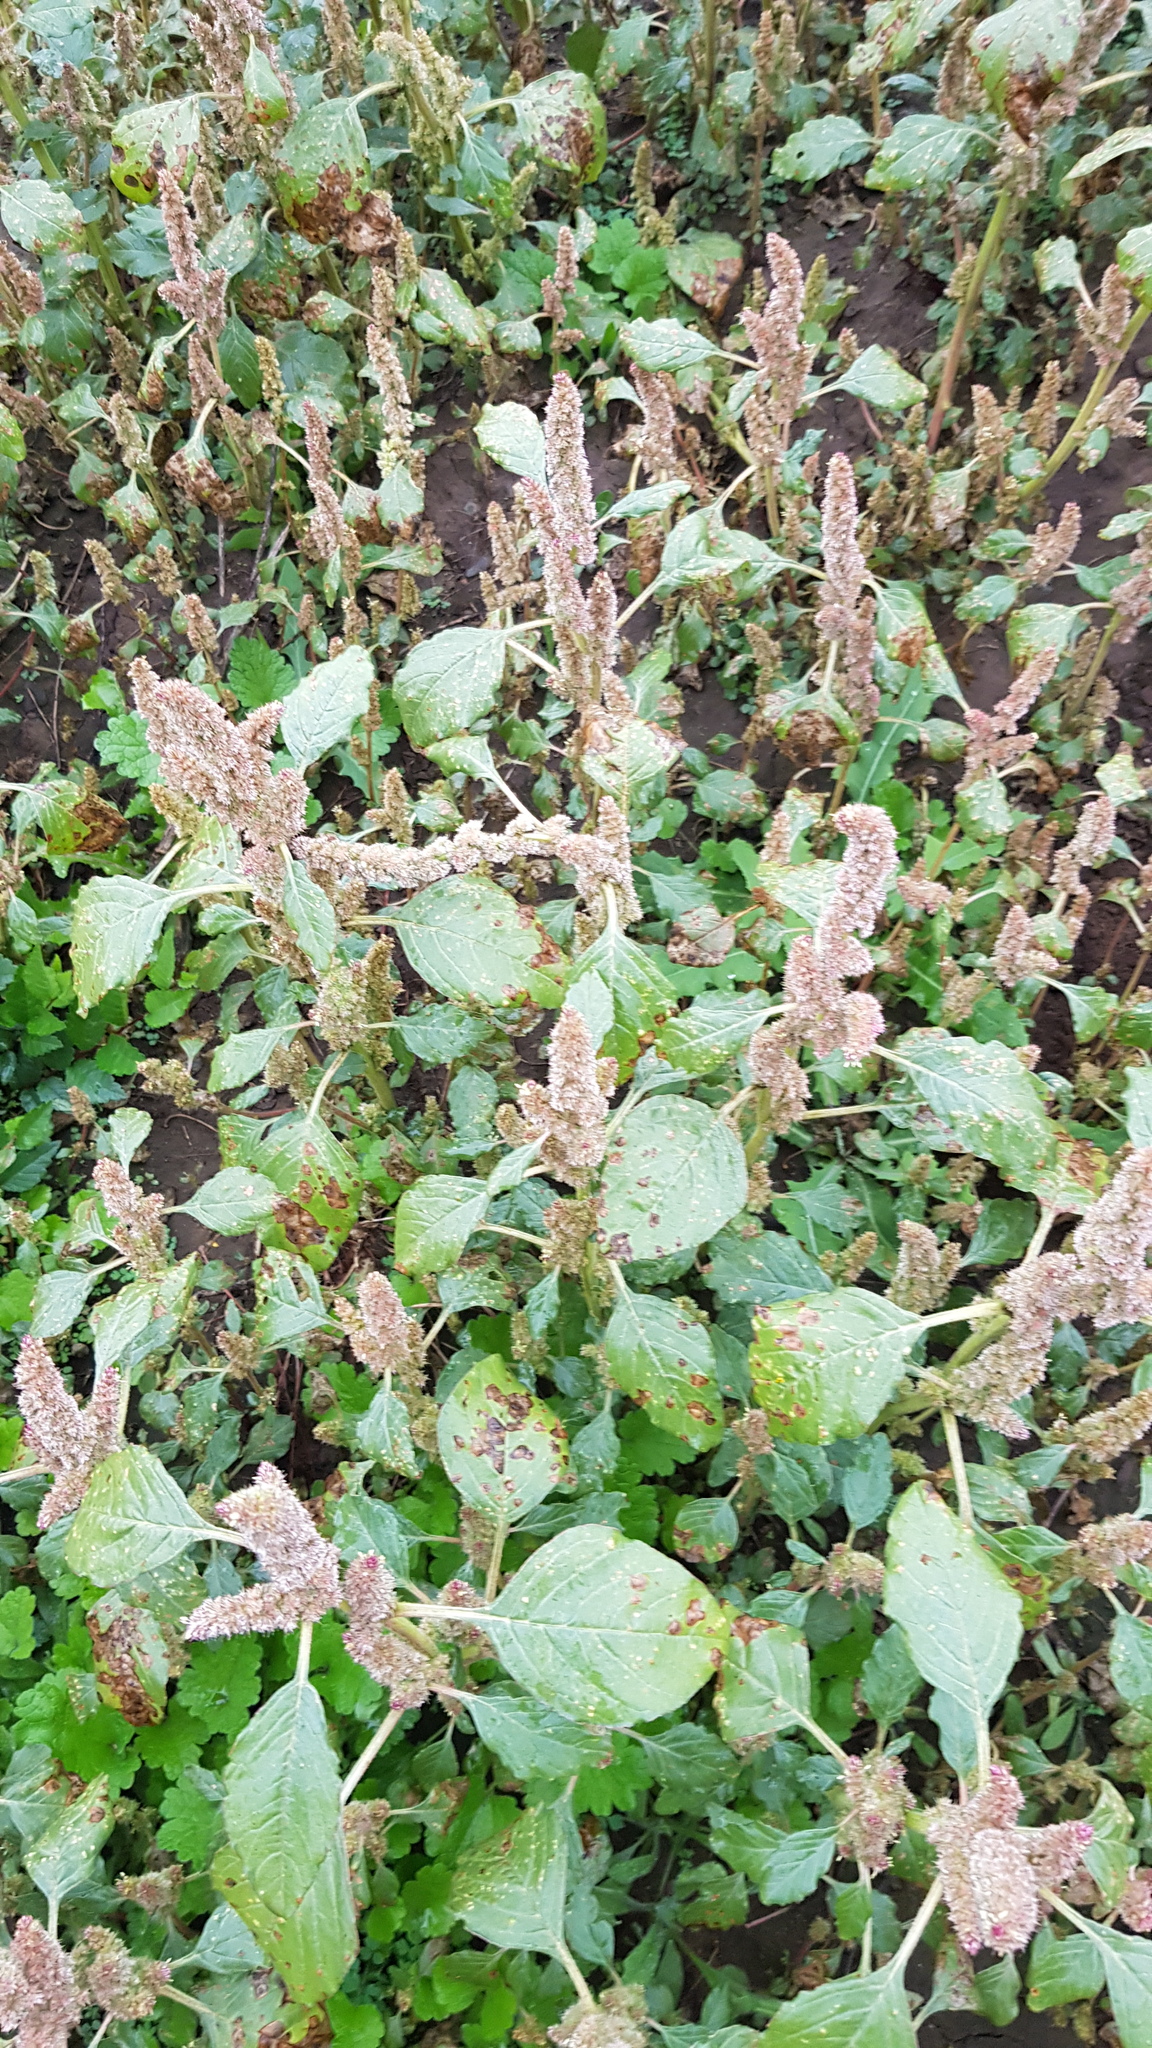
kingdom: Plantae
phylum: Tracheophyta
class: Magnoliopsida
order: Caryophyllales
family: Amaranthaceae
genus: Amaranthus
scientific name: Amaranthus retroflexus
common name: Redroot amaranth
